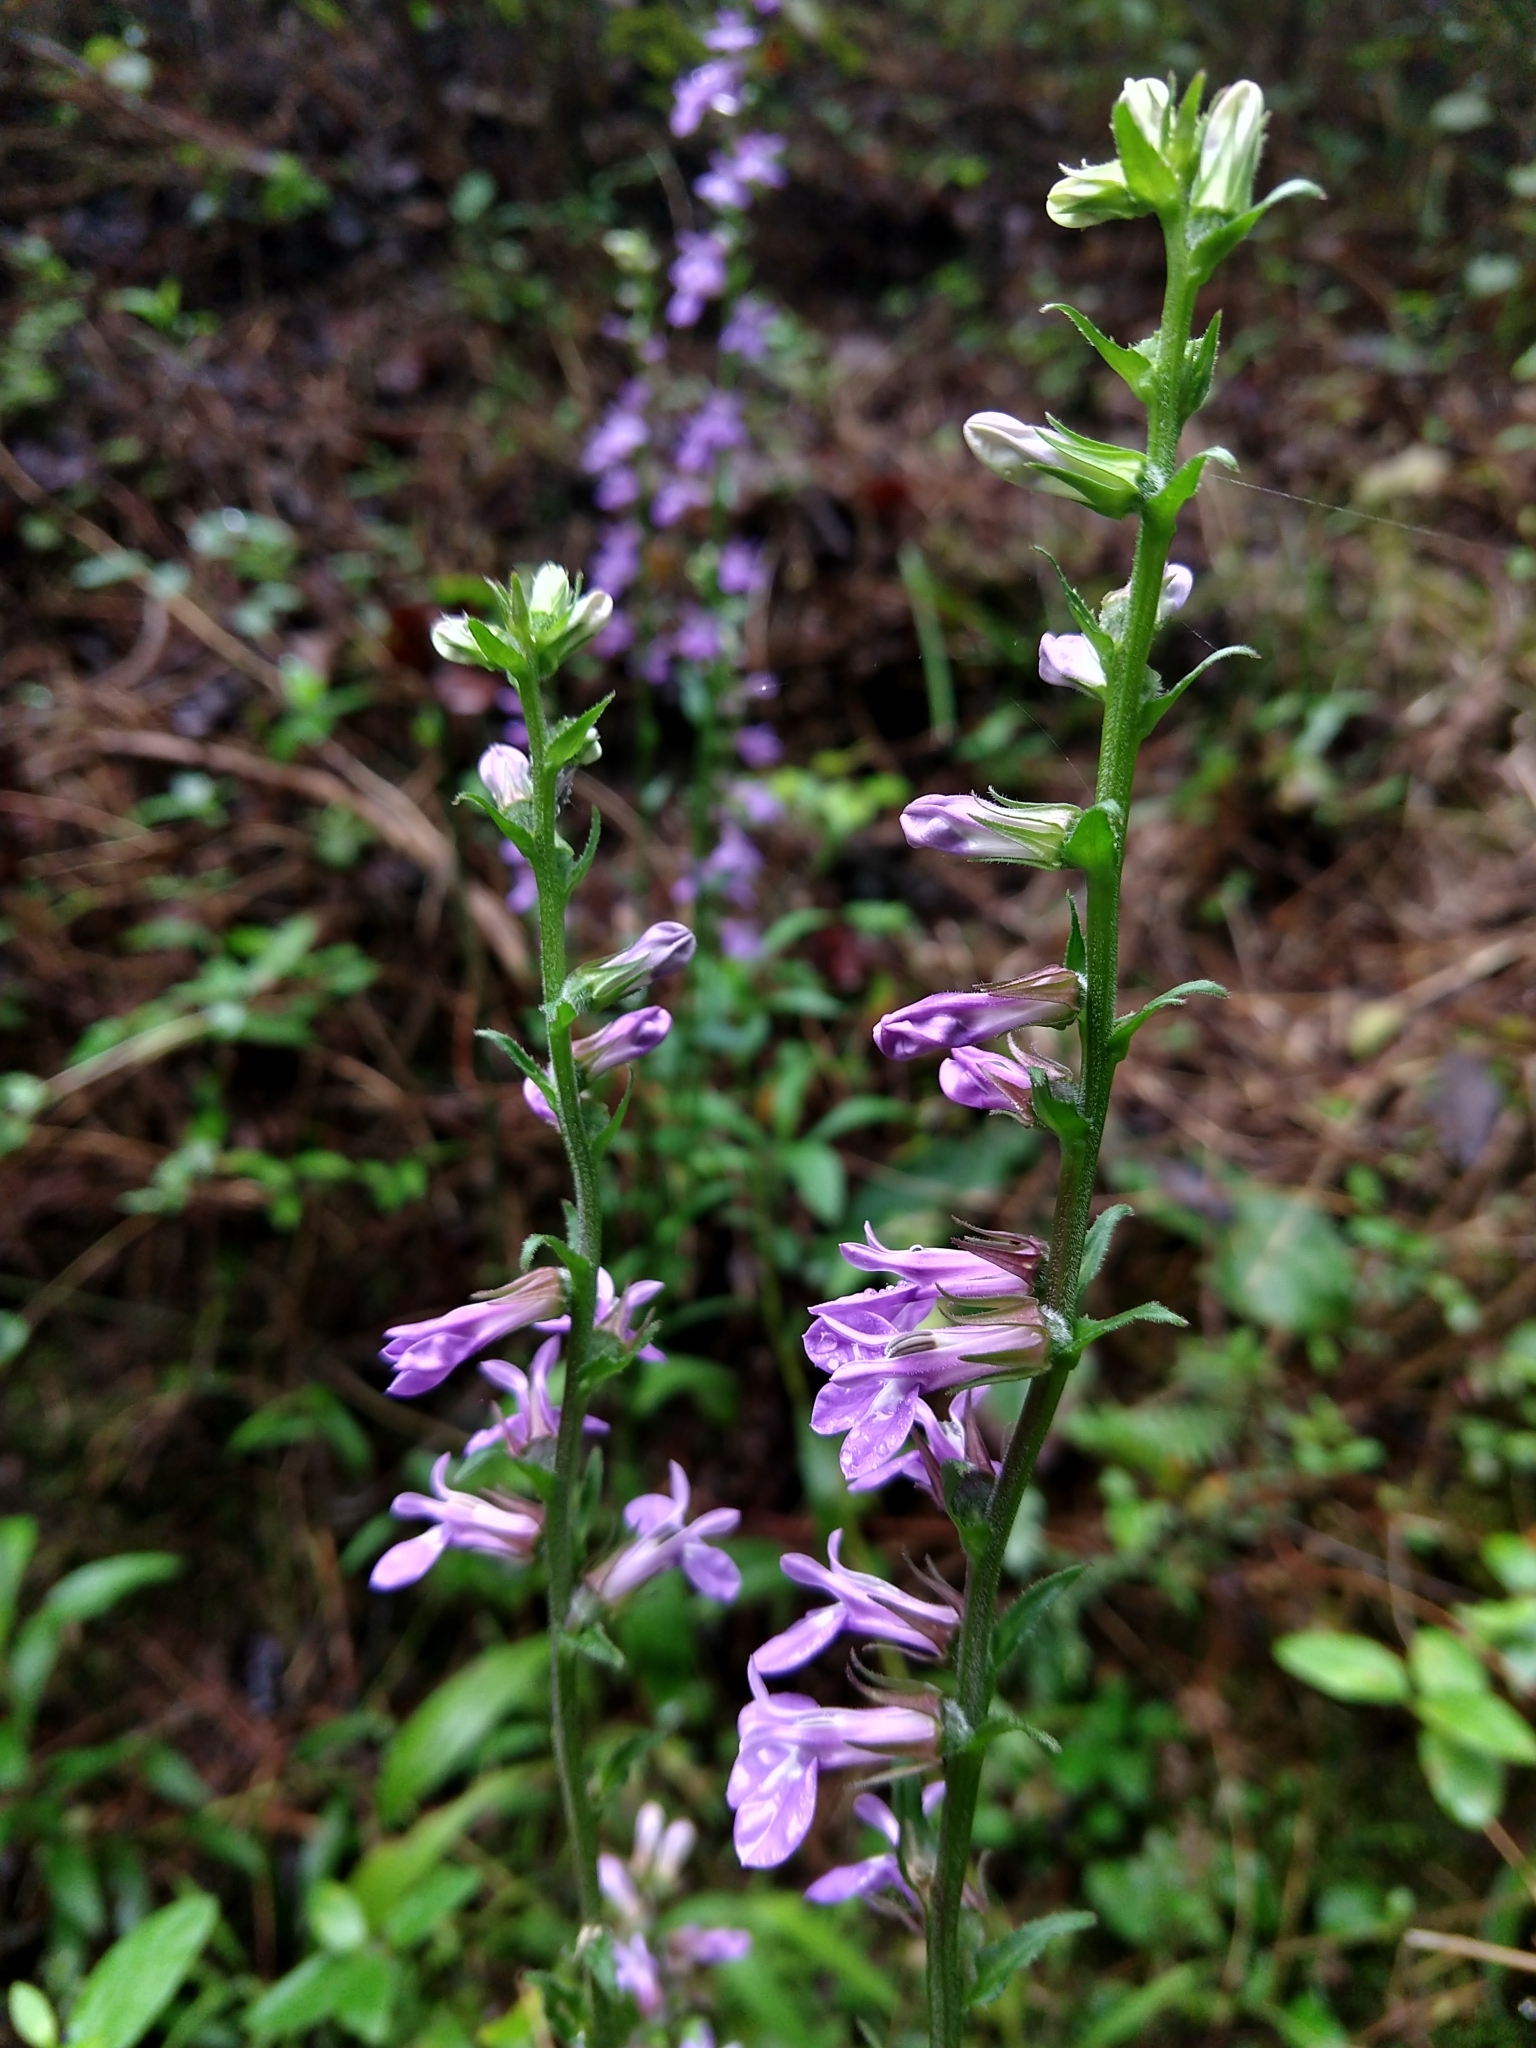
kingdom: Plantae
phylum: Tracheophyta
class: Magnoliopsida
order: Asterales
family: Campanulaceae
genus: Lobelia
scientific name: Lobelia puberula
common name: Purple dewdrop
